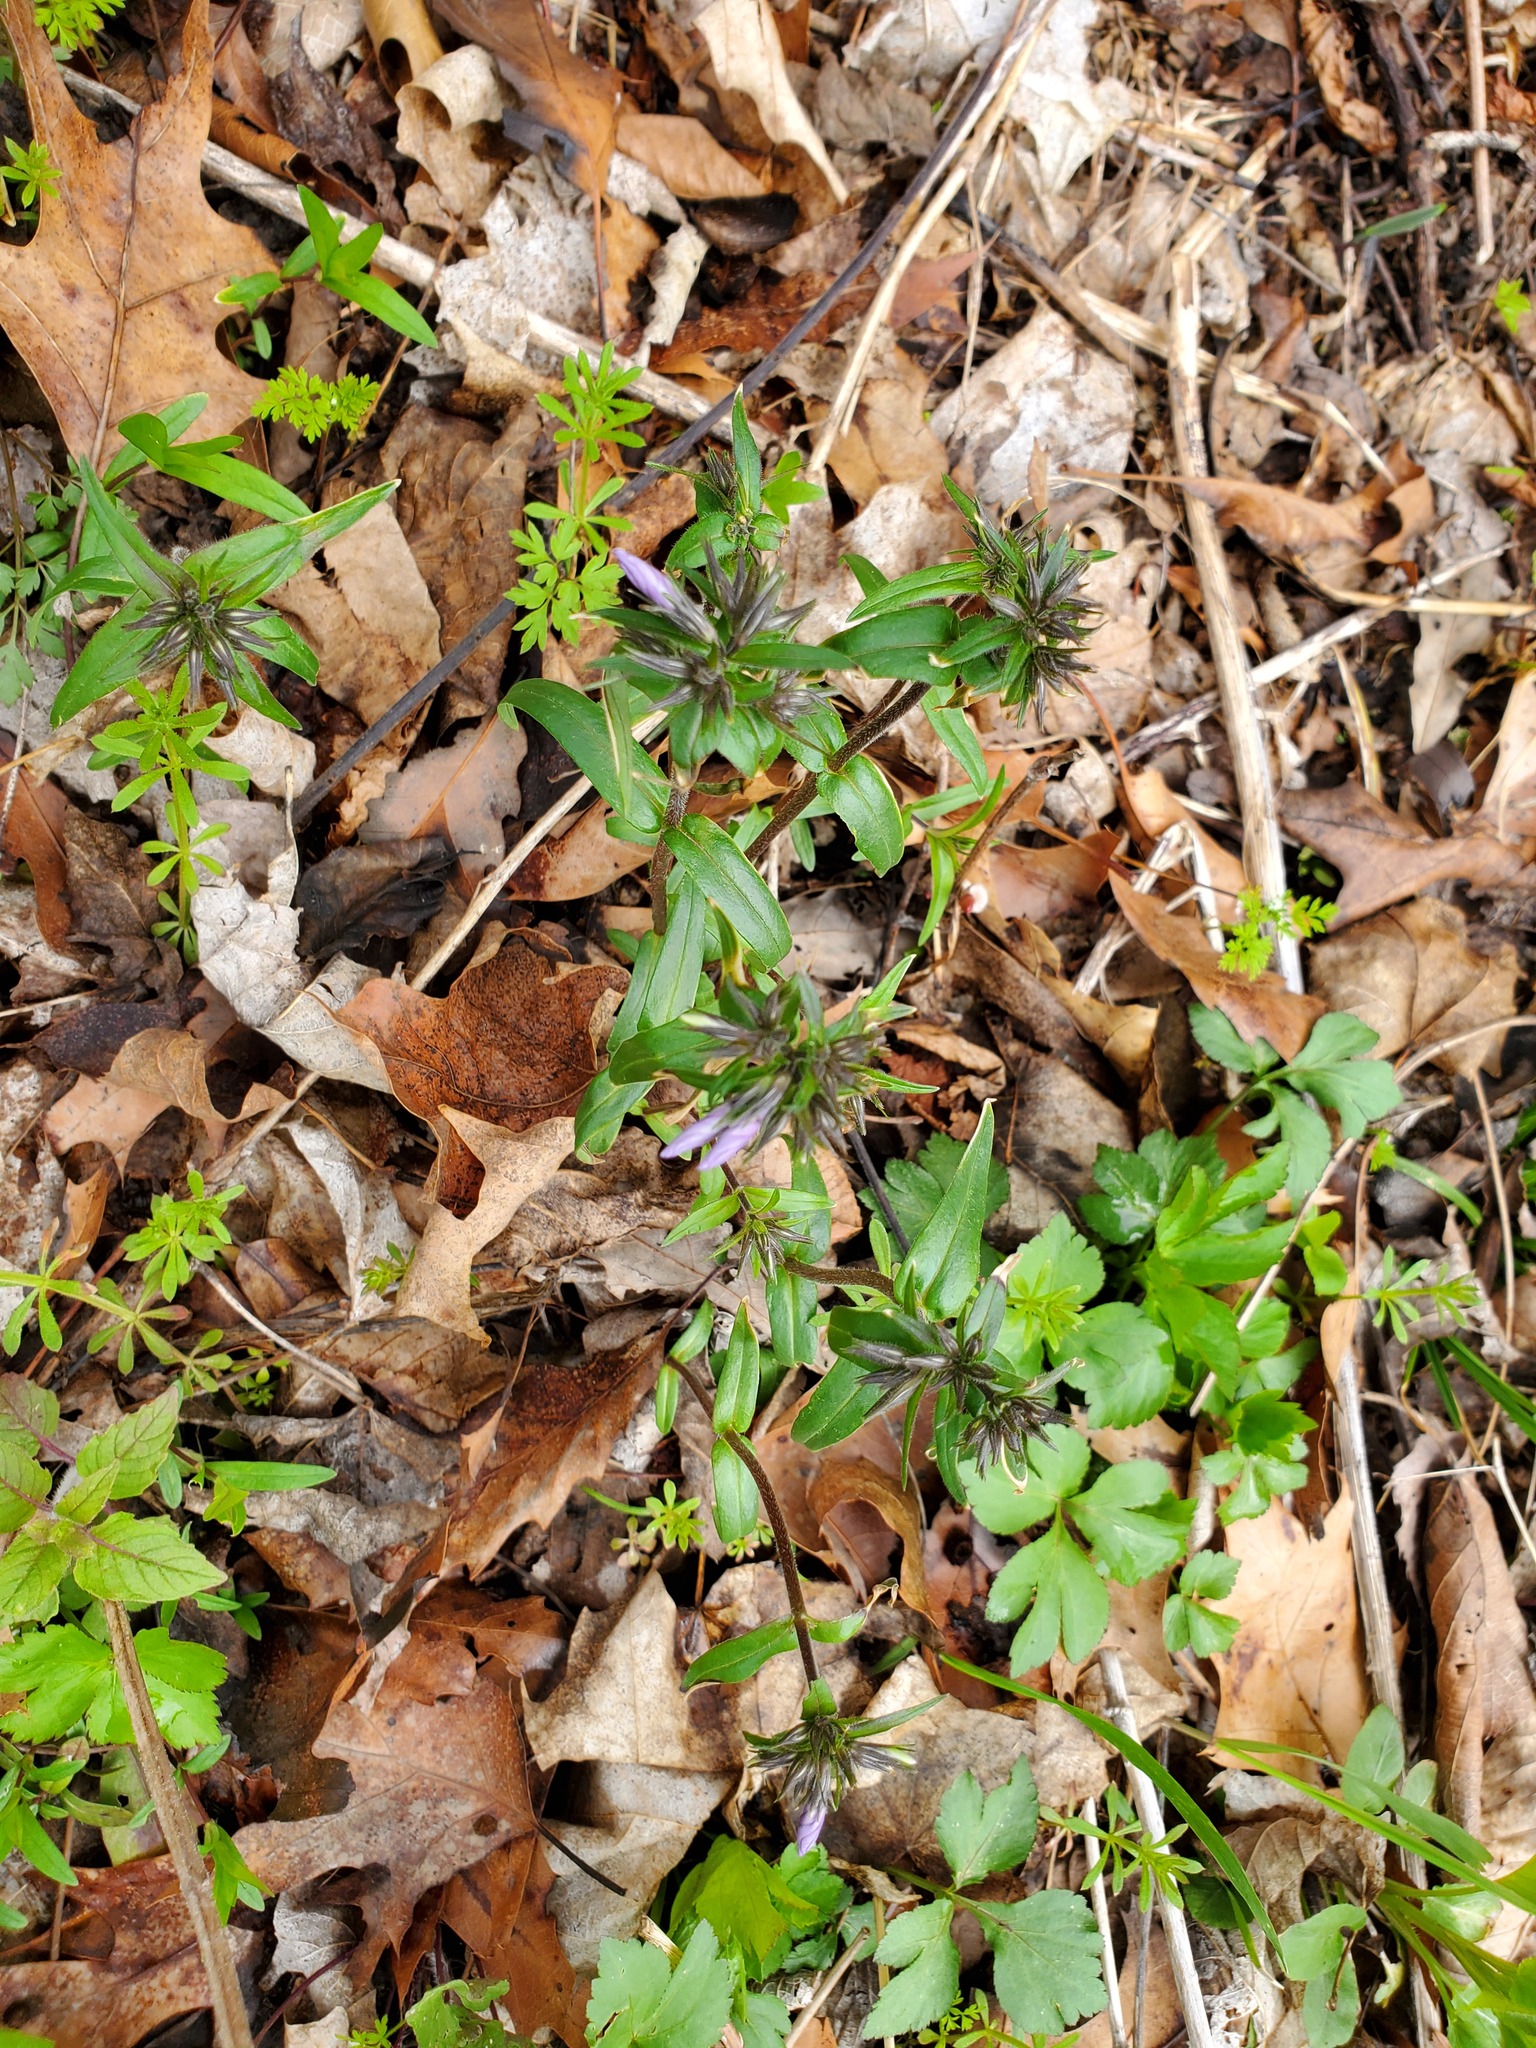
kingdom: Plantae
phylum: Tracheophyta
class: Magnoliopsida
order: Ericales
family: Polemoniaceae
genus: Phlox
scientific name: Phlox divaricata
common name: Blue phlox
